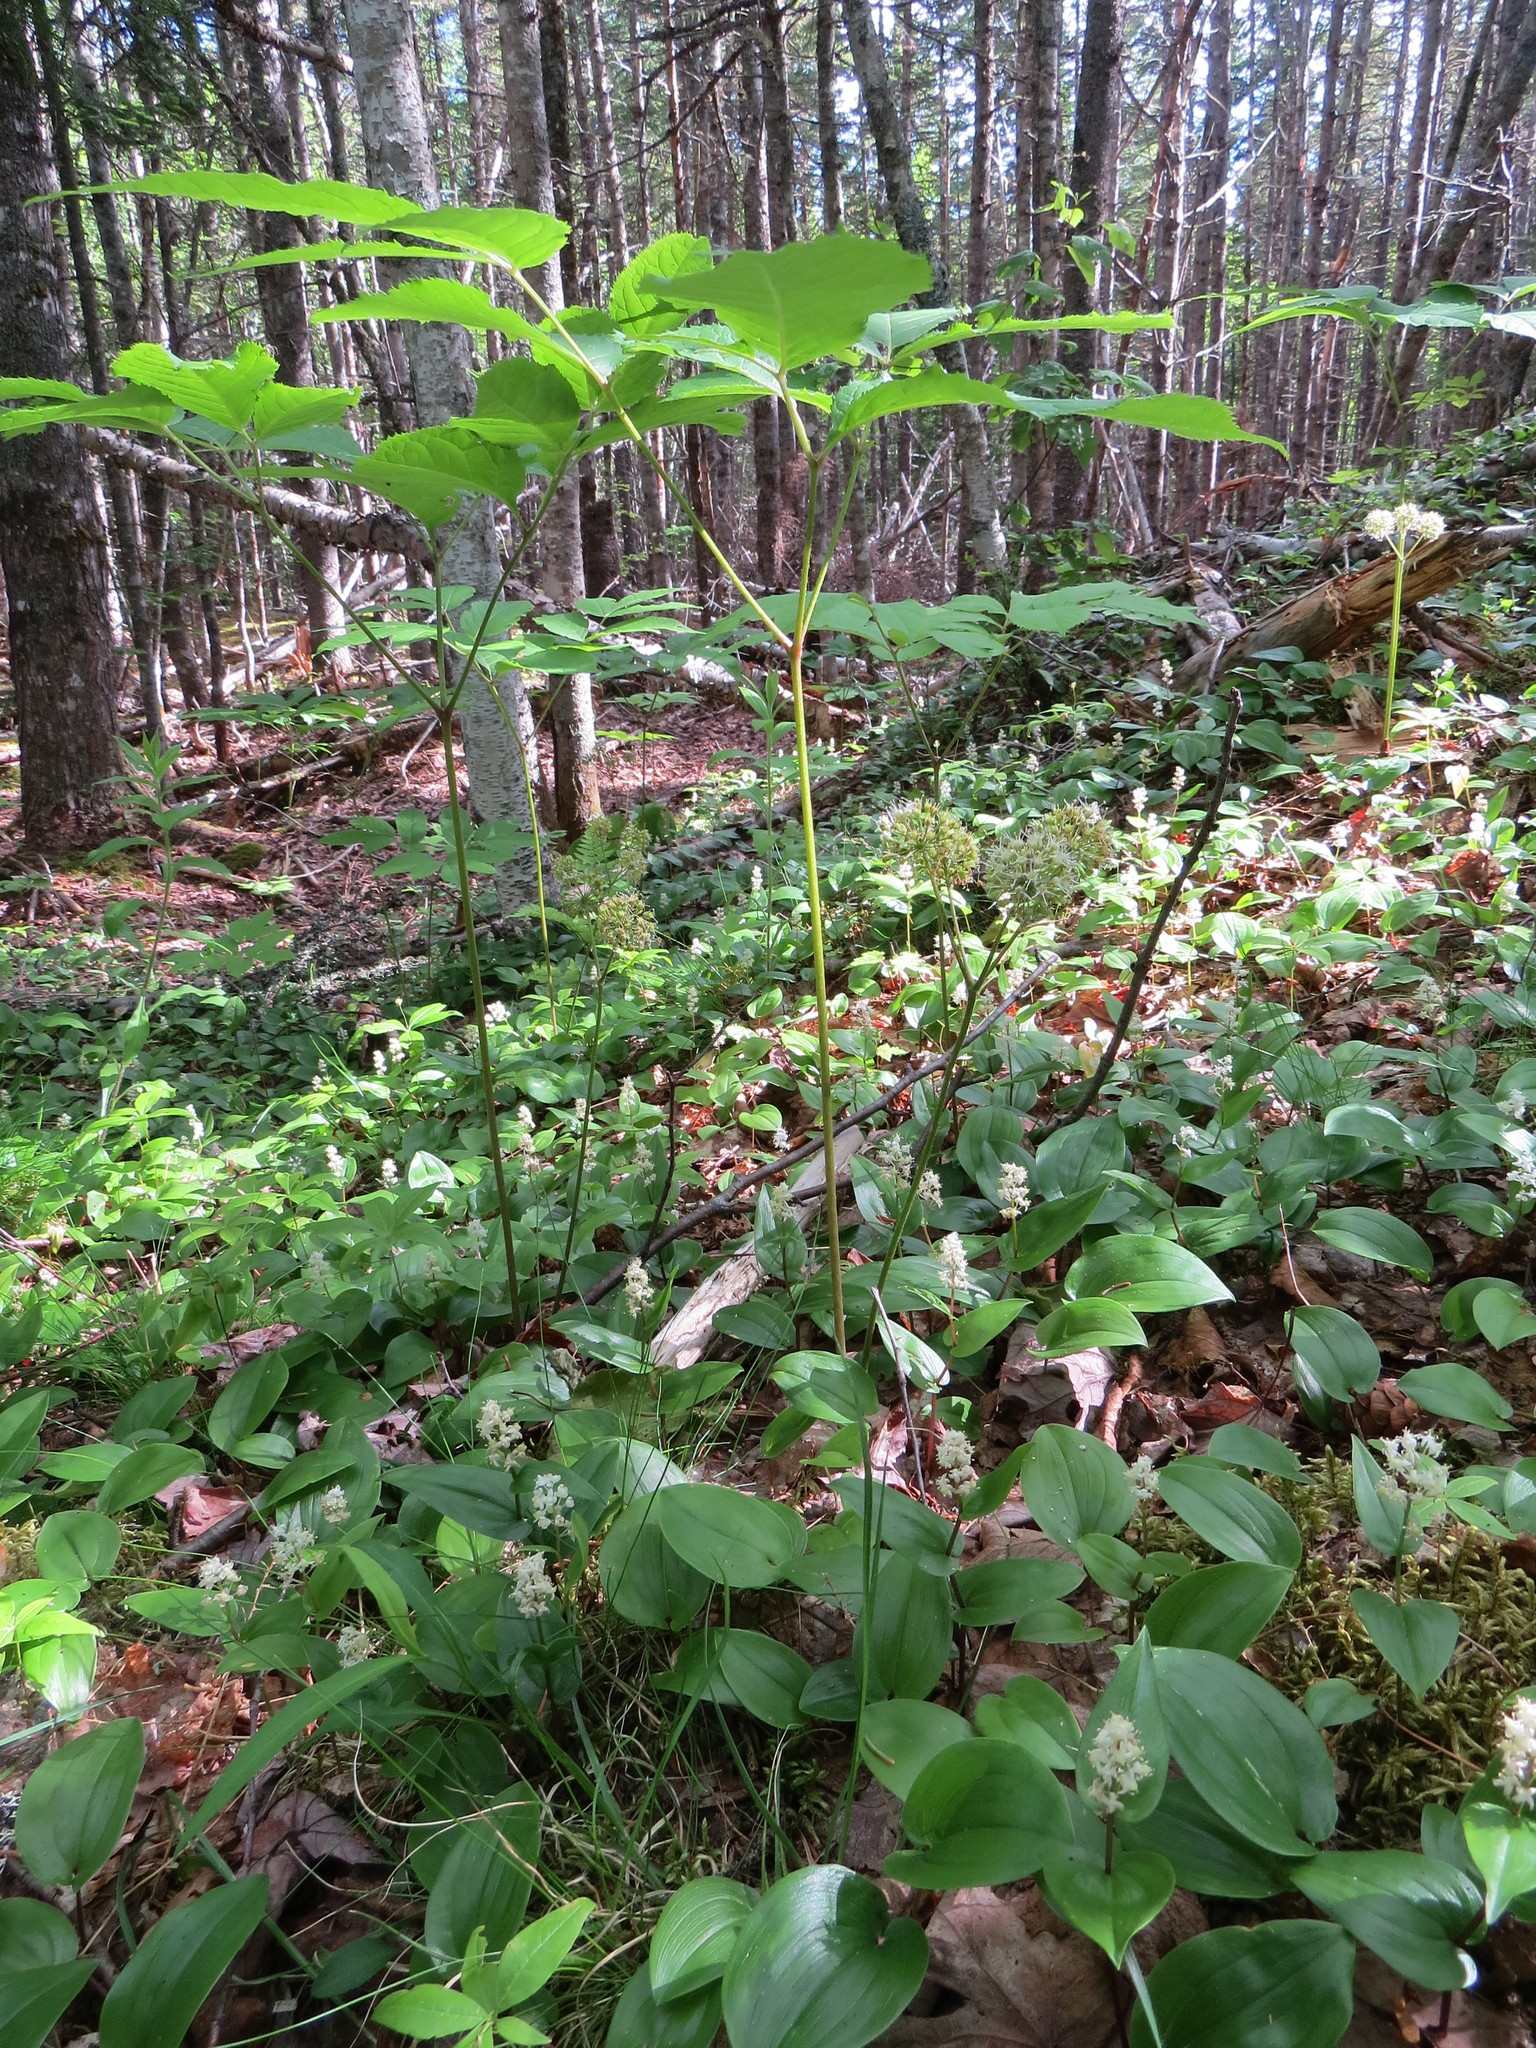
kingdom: Plantae
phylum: Tracheophyta
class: Magnoliopsida
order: Apiales
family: Araliaceae
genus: Aralia
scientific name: Aralia nudicaulis
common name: Wild sarsaparilla
